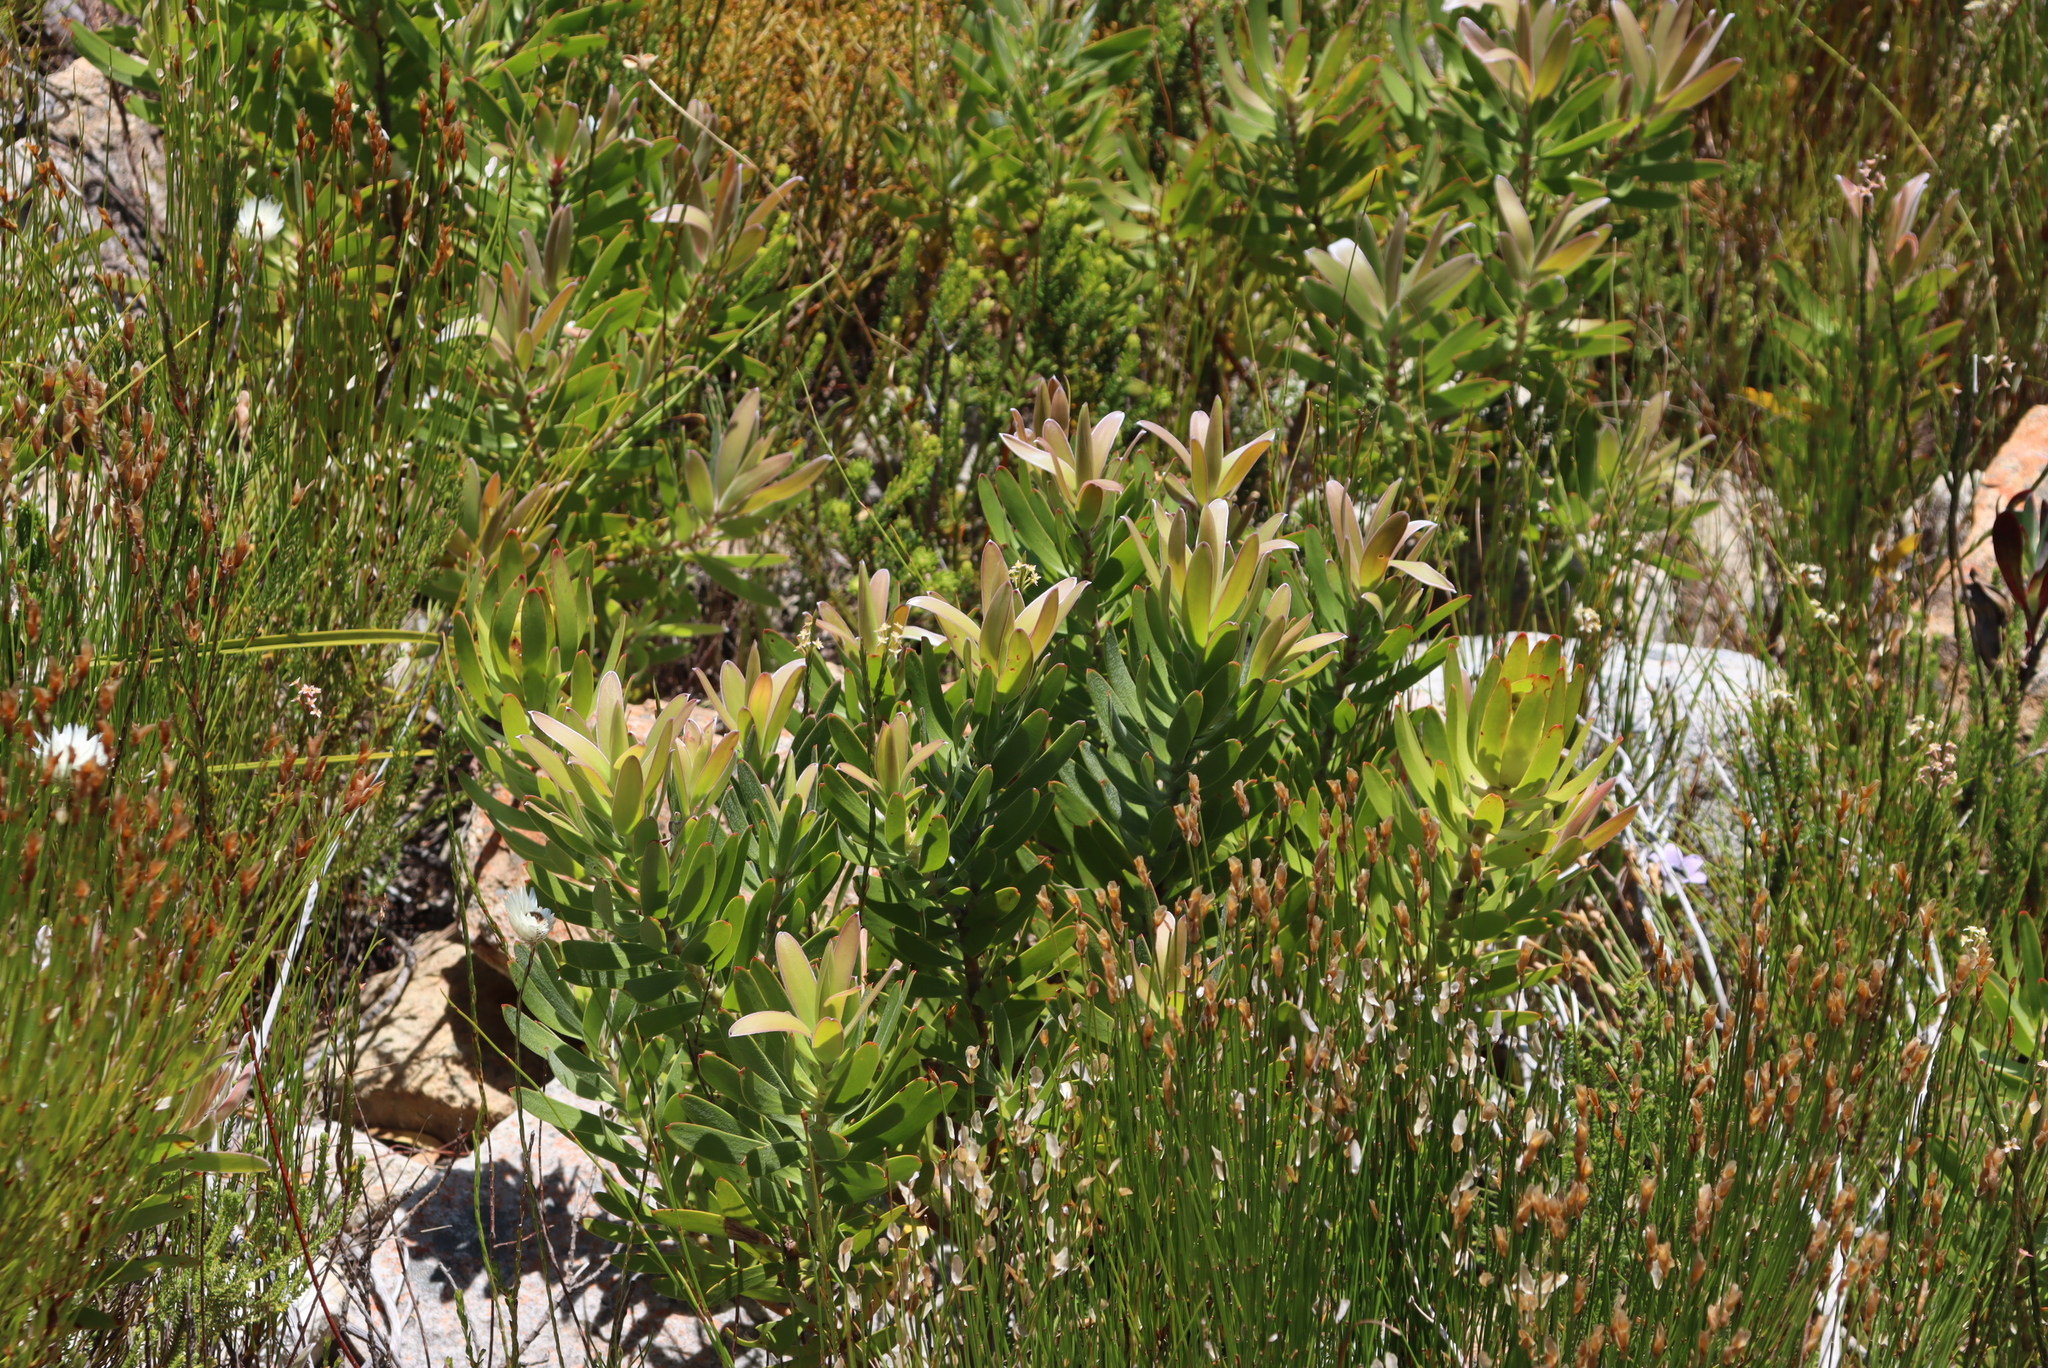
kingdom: Plantae
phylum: Tracheophyta
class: Magnoliopsida
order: Proteales
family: Proteaceae
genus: Leucadendron
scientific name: Leucadendron laureolum
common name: Golden sunshinebush
